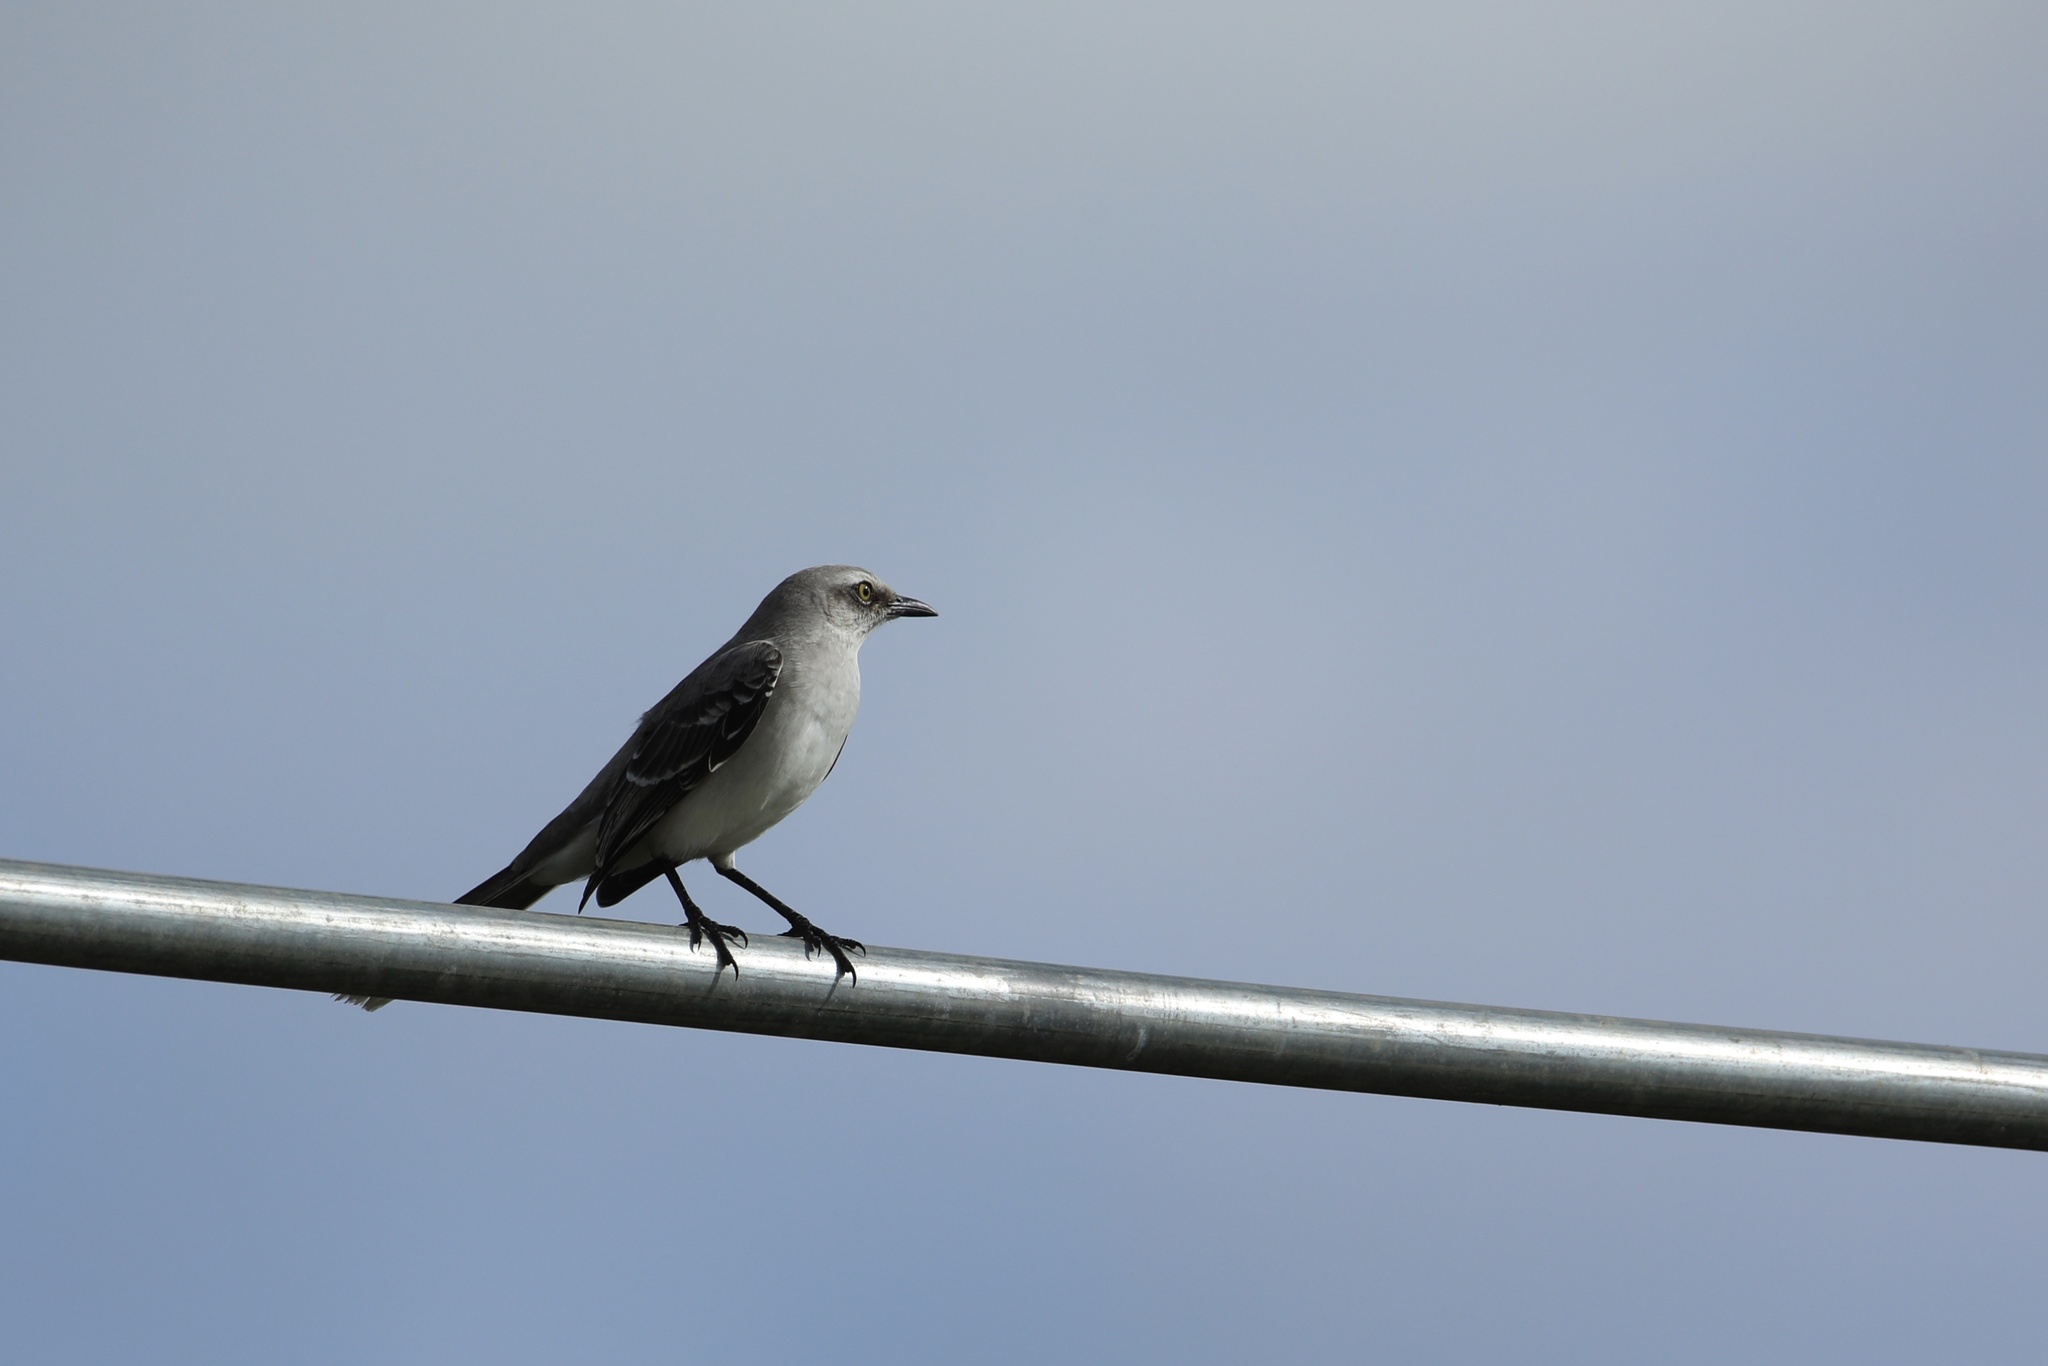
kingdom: Animalia
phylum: Chordata
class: Aves
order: Passeriformes
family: Mimidae
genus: Mimus
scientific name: Mimus gilvus
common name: Tropical mockingbird
